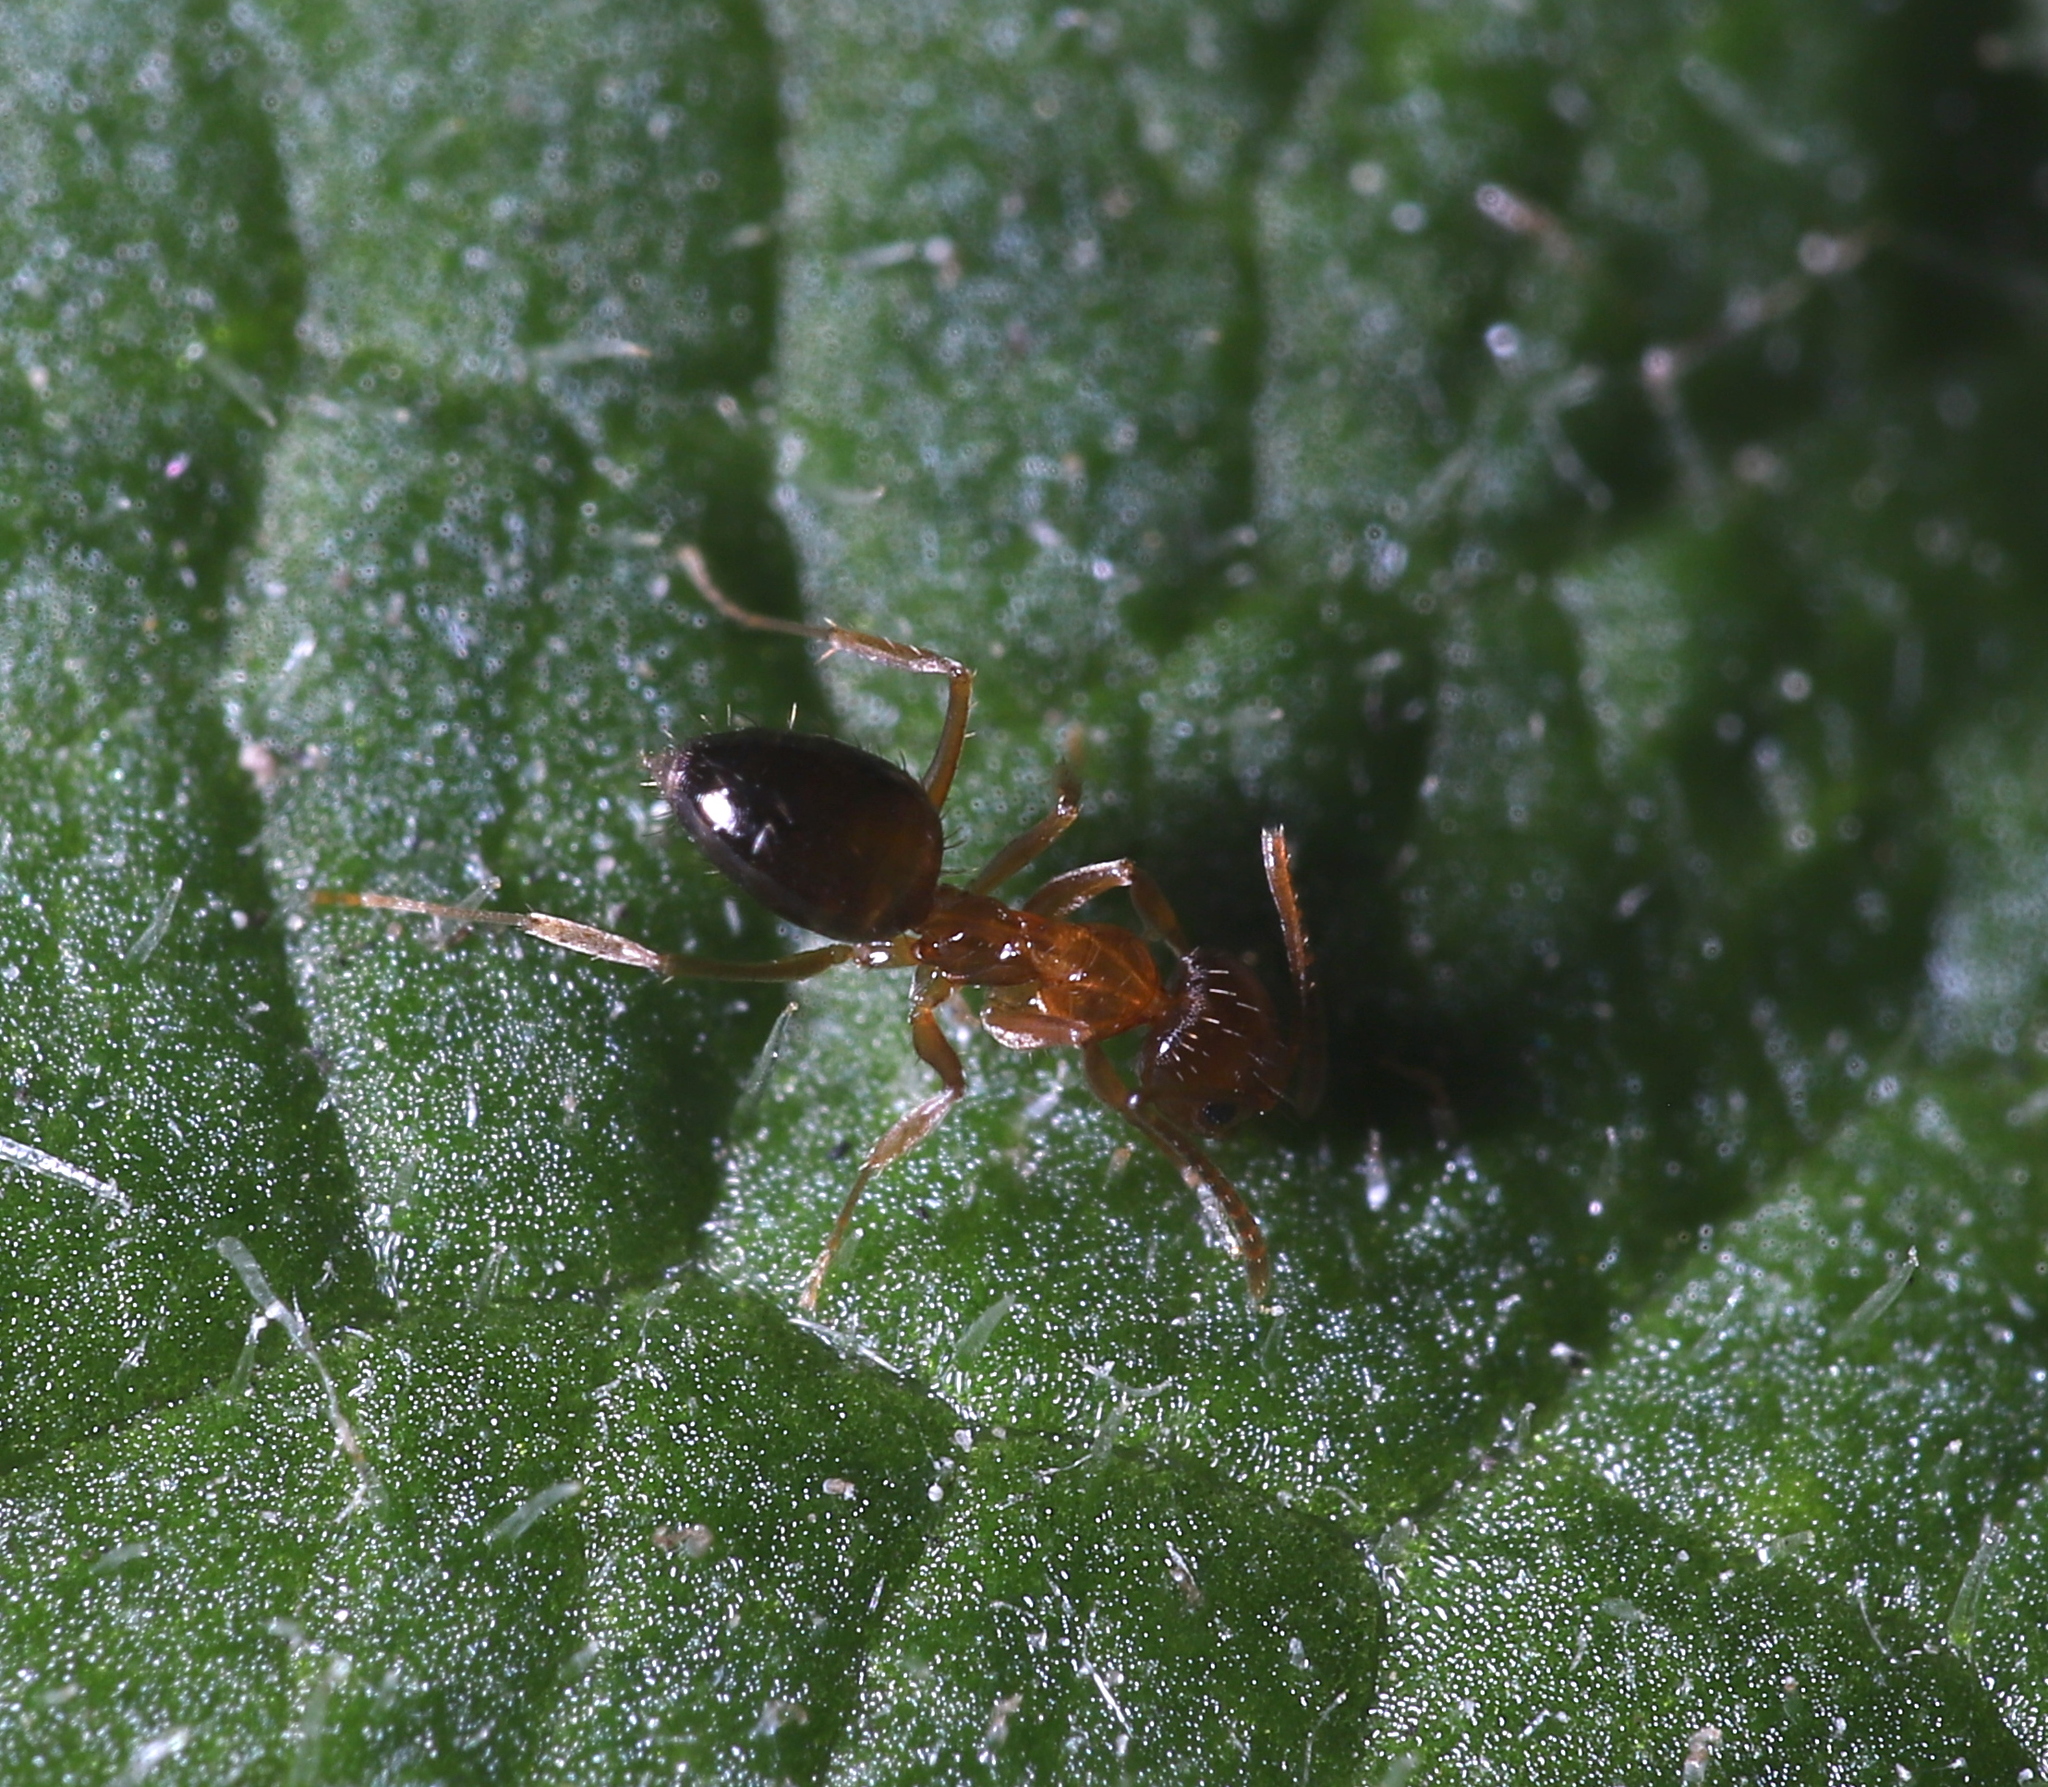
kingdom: Animalia
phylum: Arthropoda
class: Insecta
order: Hymenoptera
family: Formicidae
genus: Paratrechina
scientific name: Paratrechina flavipes
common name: Eastern asian formicine ant
